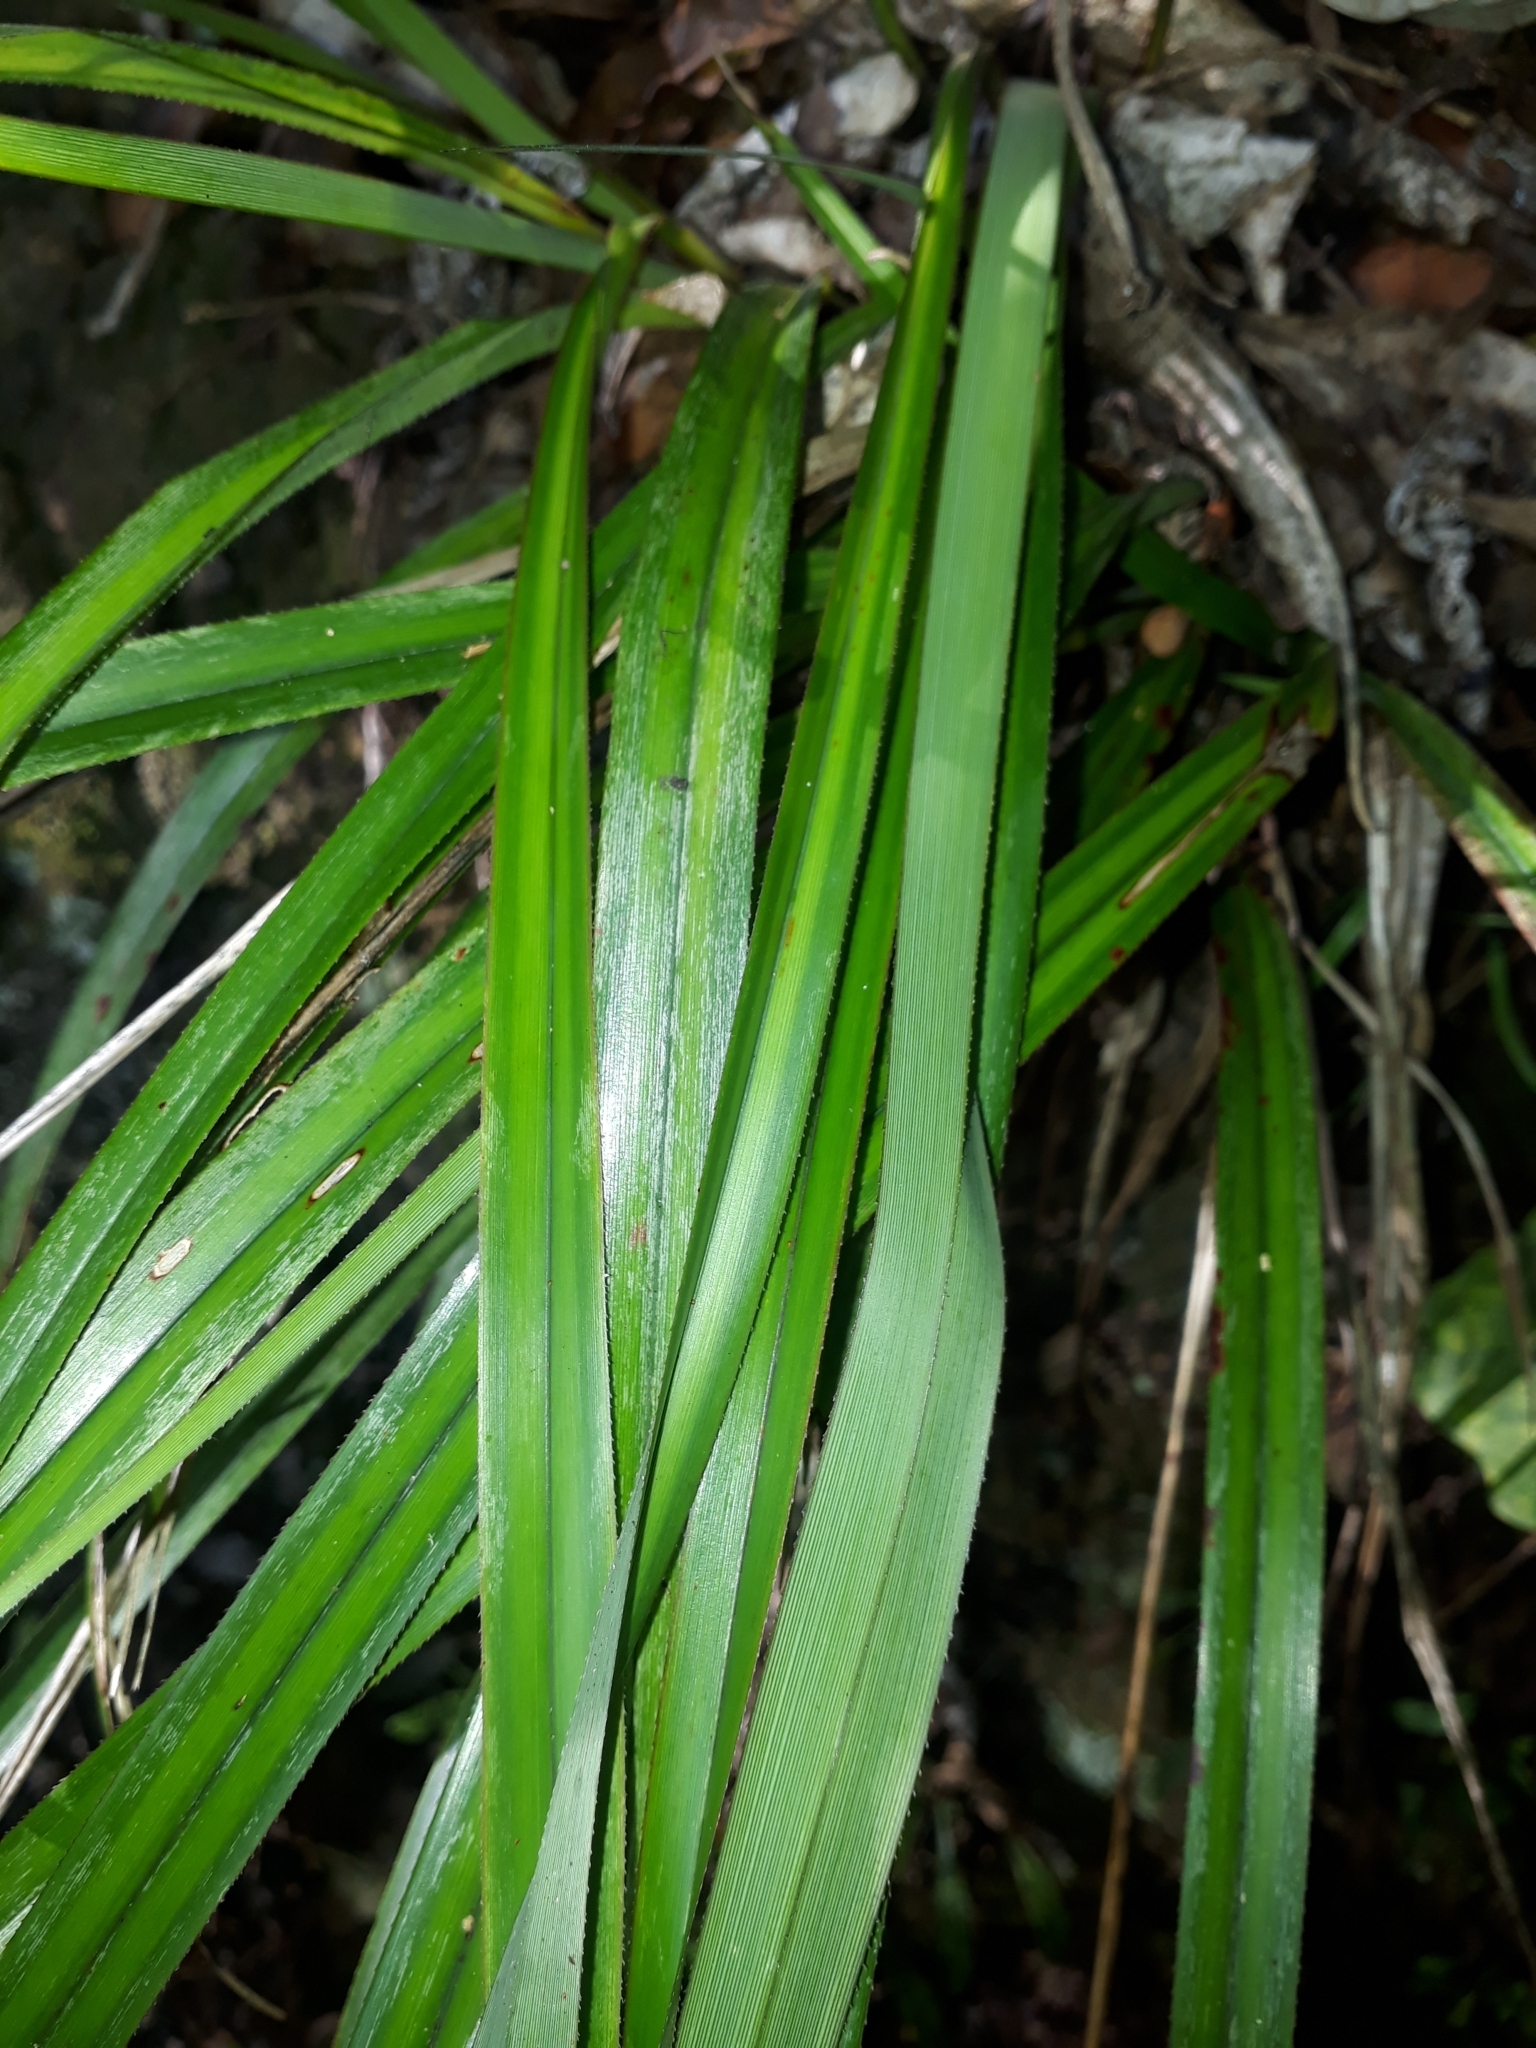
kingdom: Plantae
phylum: Tracheophyta
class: Liliopsida
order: Asparagales
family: Asphodelaceae
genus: Dianella
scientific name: Dianella nigra
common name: New zealand-blueberry
